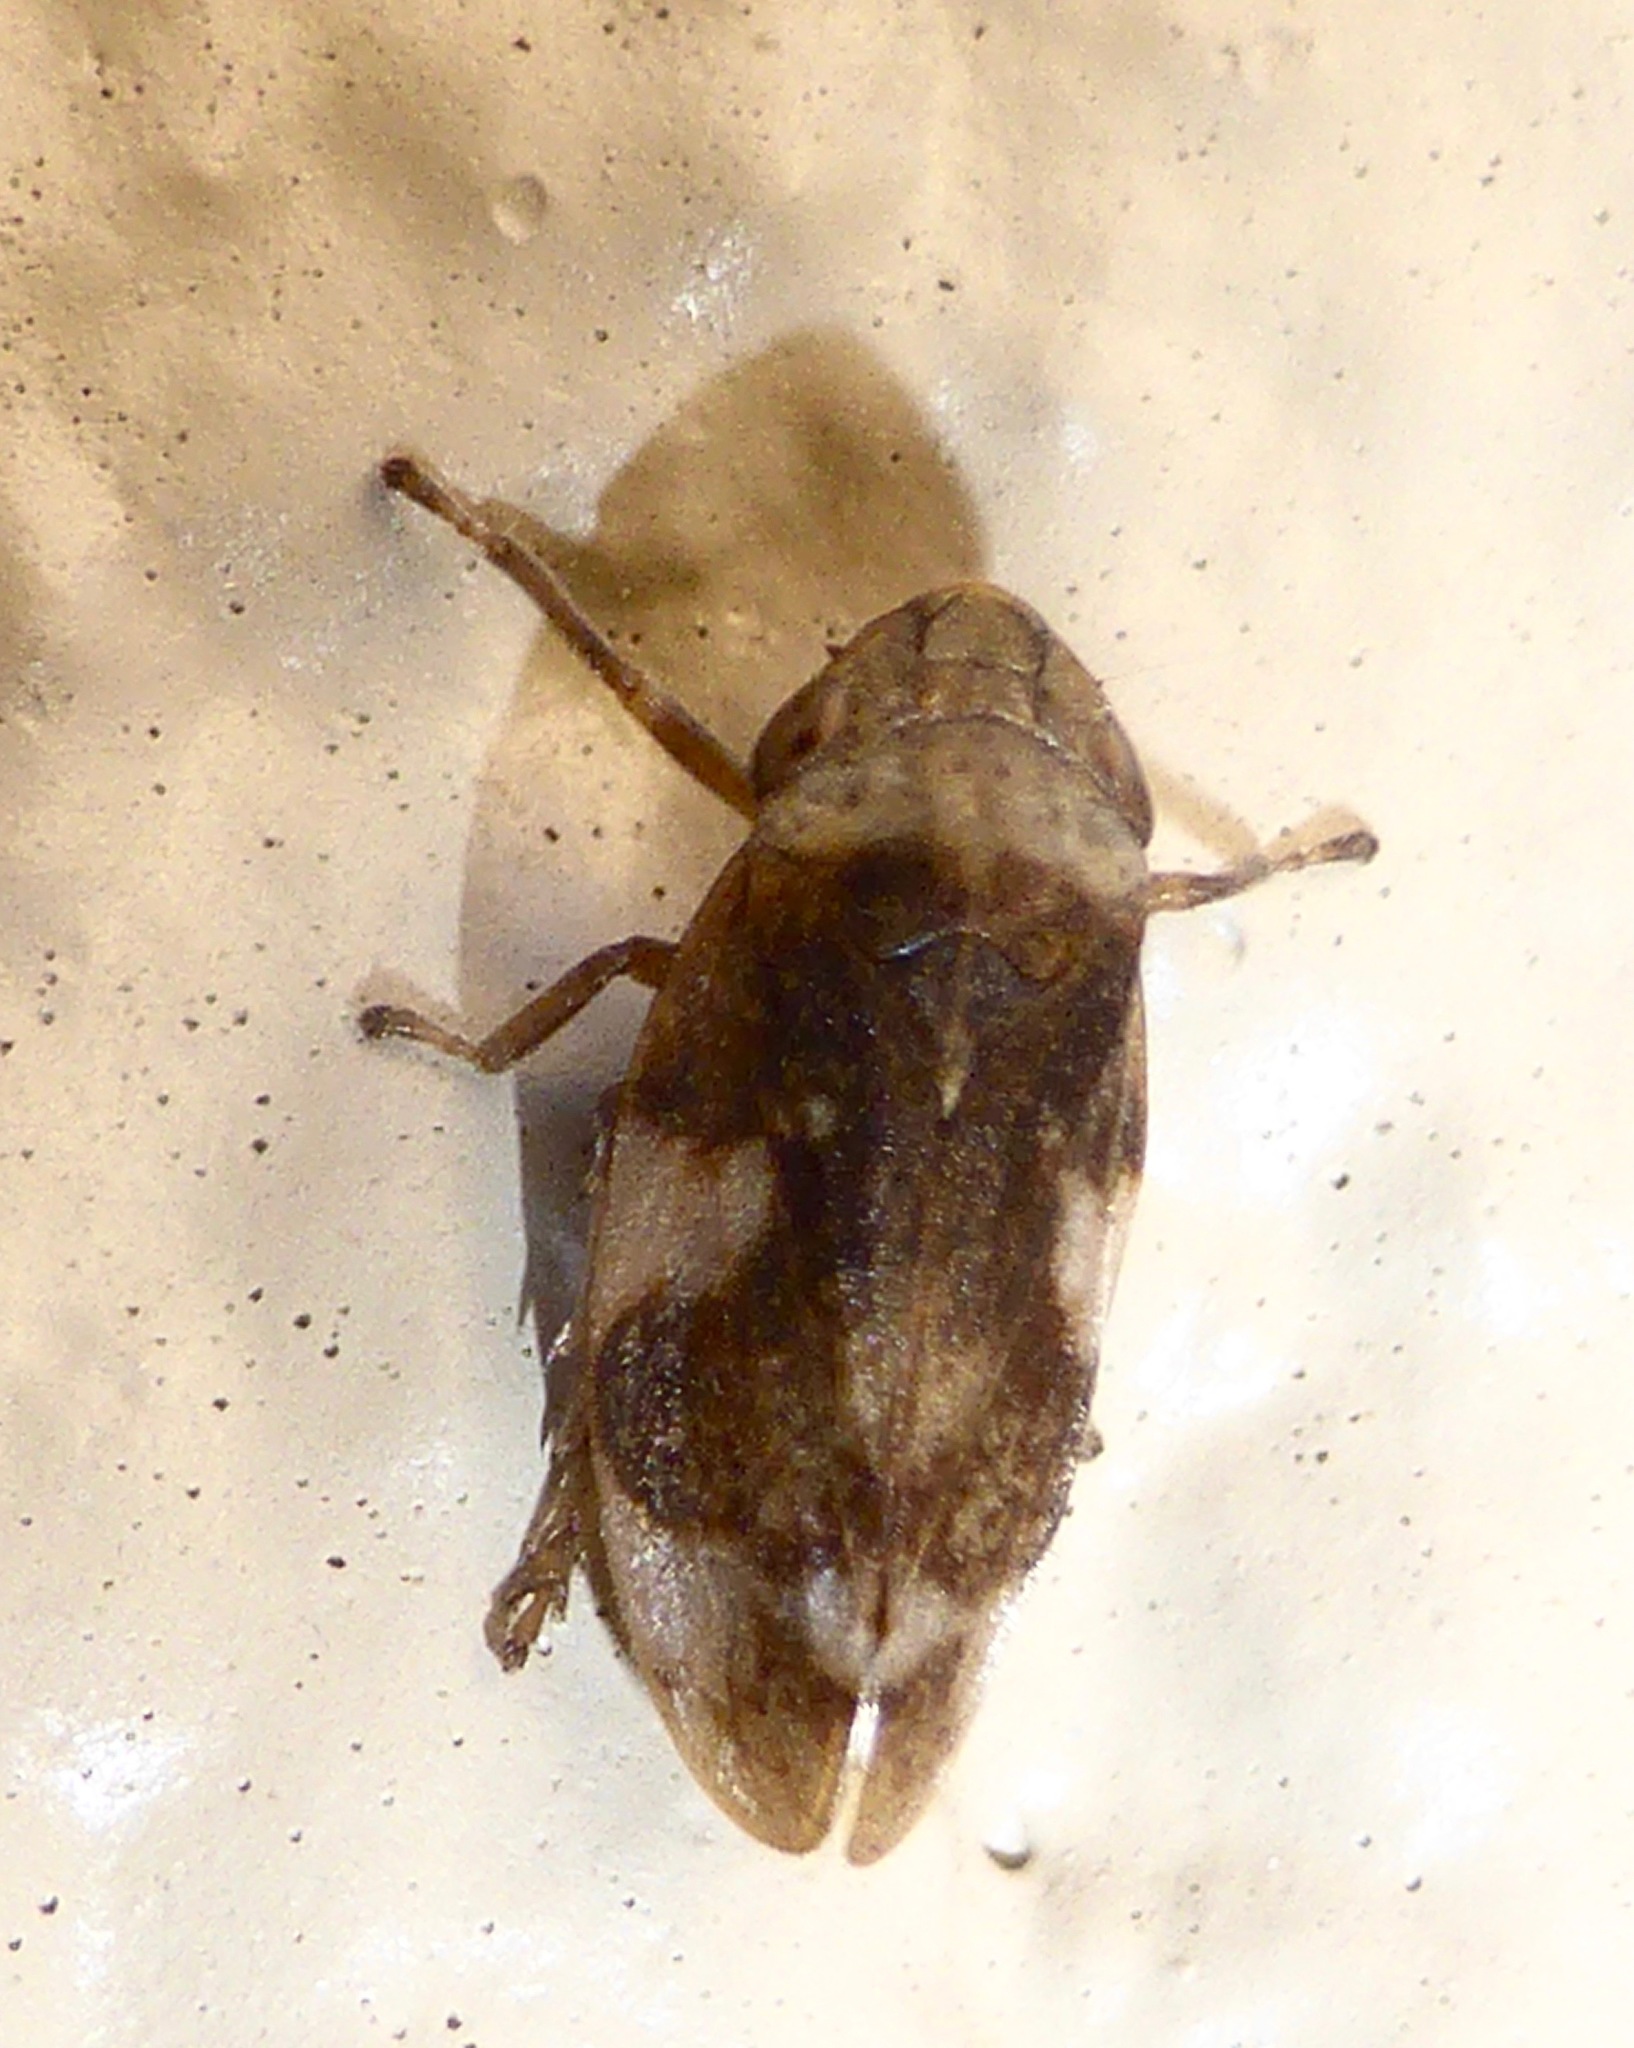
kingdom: Animalia
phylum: Arthropoda
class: Insecta
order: Hemiptera
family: Aphrophoridae
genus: Philaenus
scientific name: Philaenus spumarius
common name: Meadow spittlebug
